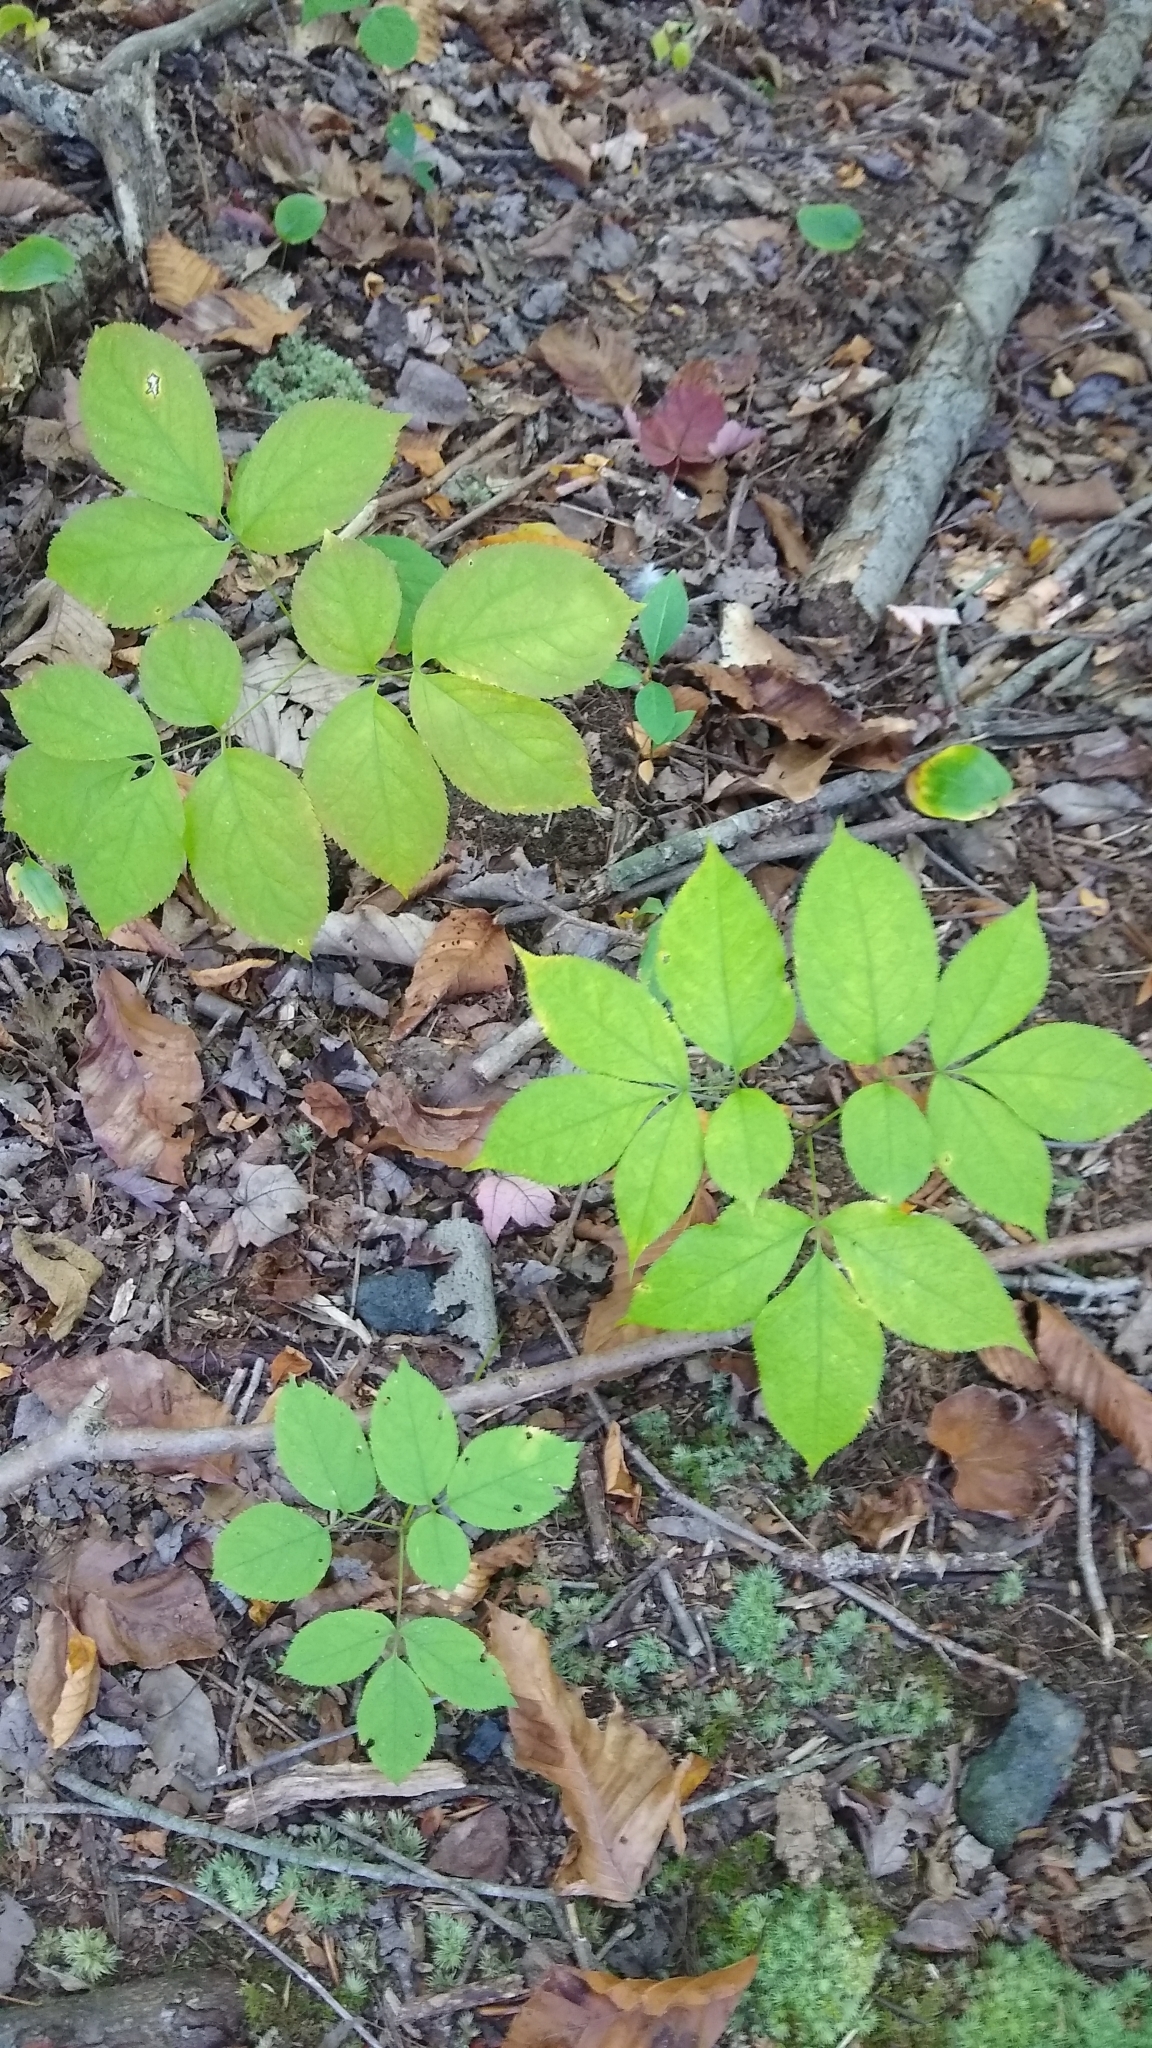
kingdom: Plantae
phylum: Tracheophyta
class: Magnoliopsida
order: Apiales
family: Araliaceae
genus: Aralia
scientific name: Aralia nudicaulis
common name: Wild sarsaparilla
